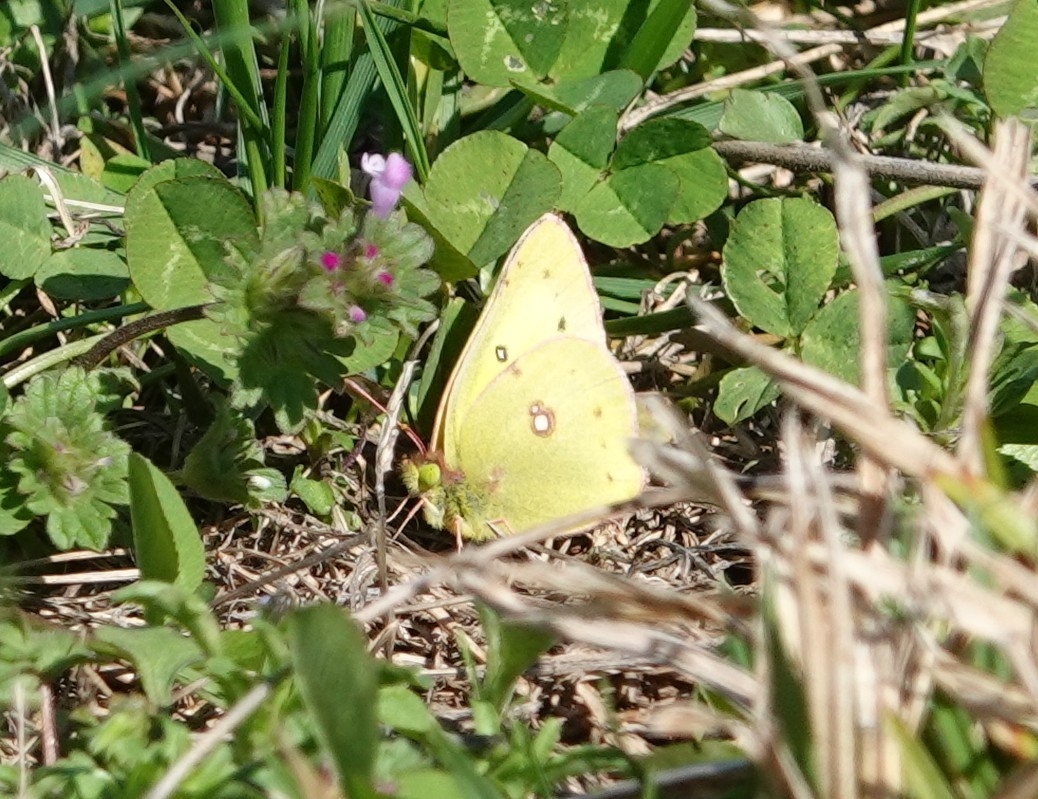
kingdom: Animalia
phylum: Arthropoda
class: Insecta
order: Lepidoptera
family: Pieridae
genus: Colias
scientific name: Colias eurytheme
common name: Alfalfa butterfly
